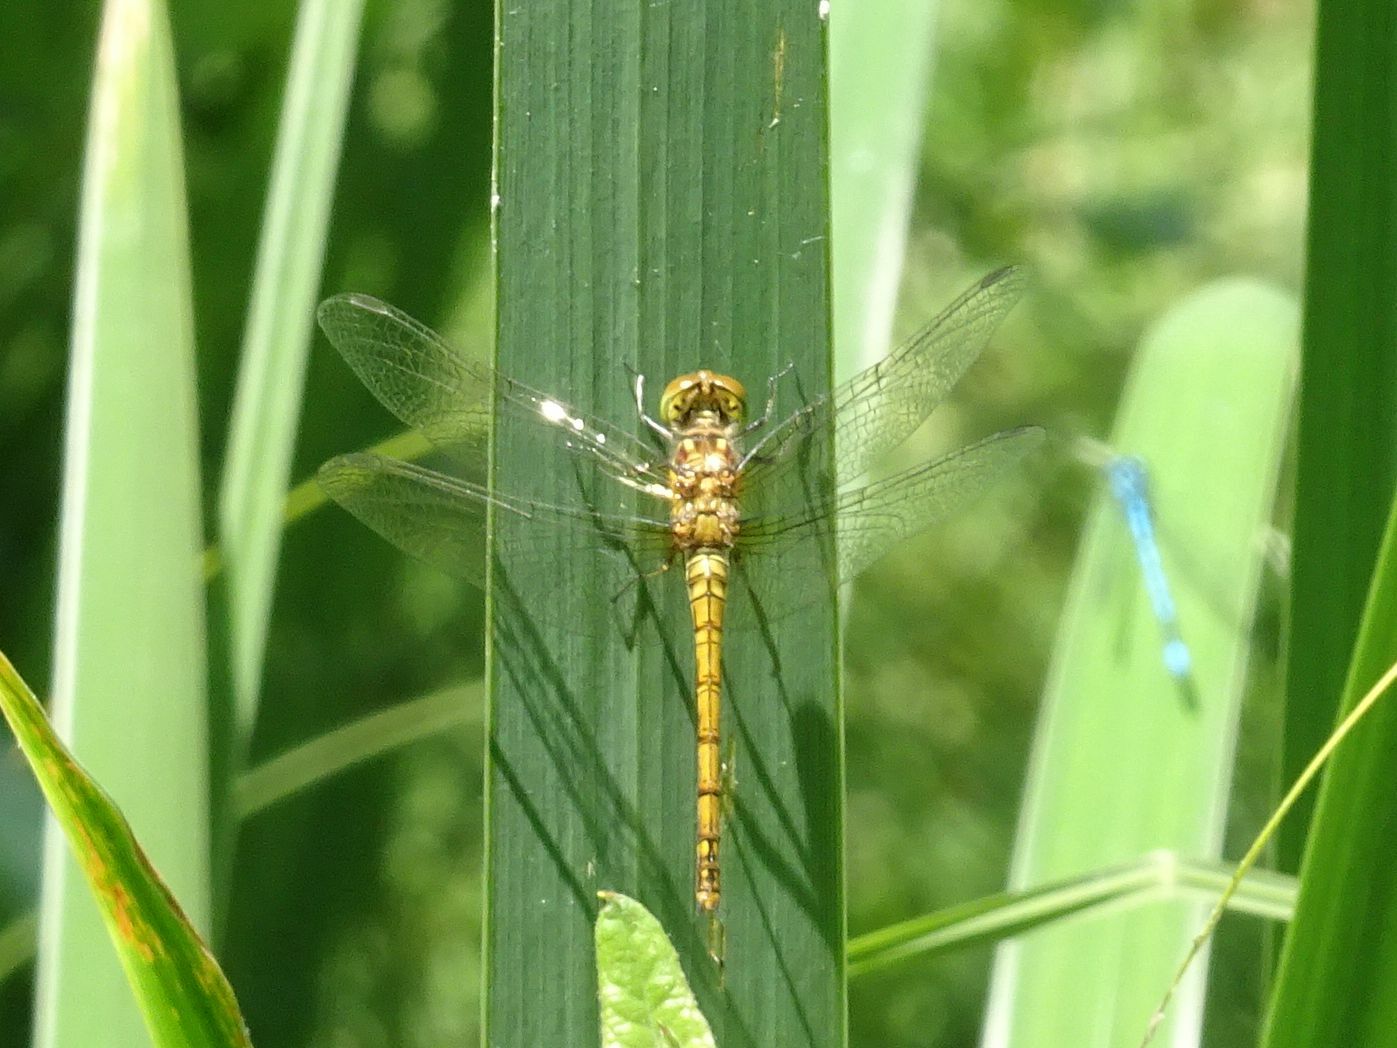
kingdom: Animalia
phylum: Arthropoda
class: Insecta
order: Odonata
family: Libellulidae
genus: Sympetrum
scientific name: Sympetrum striolatum
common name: Common darter
